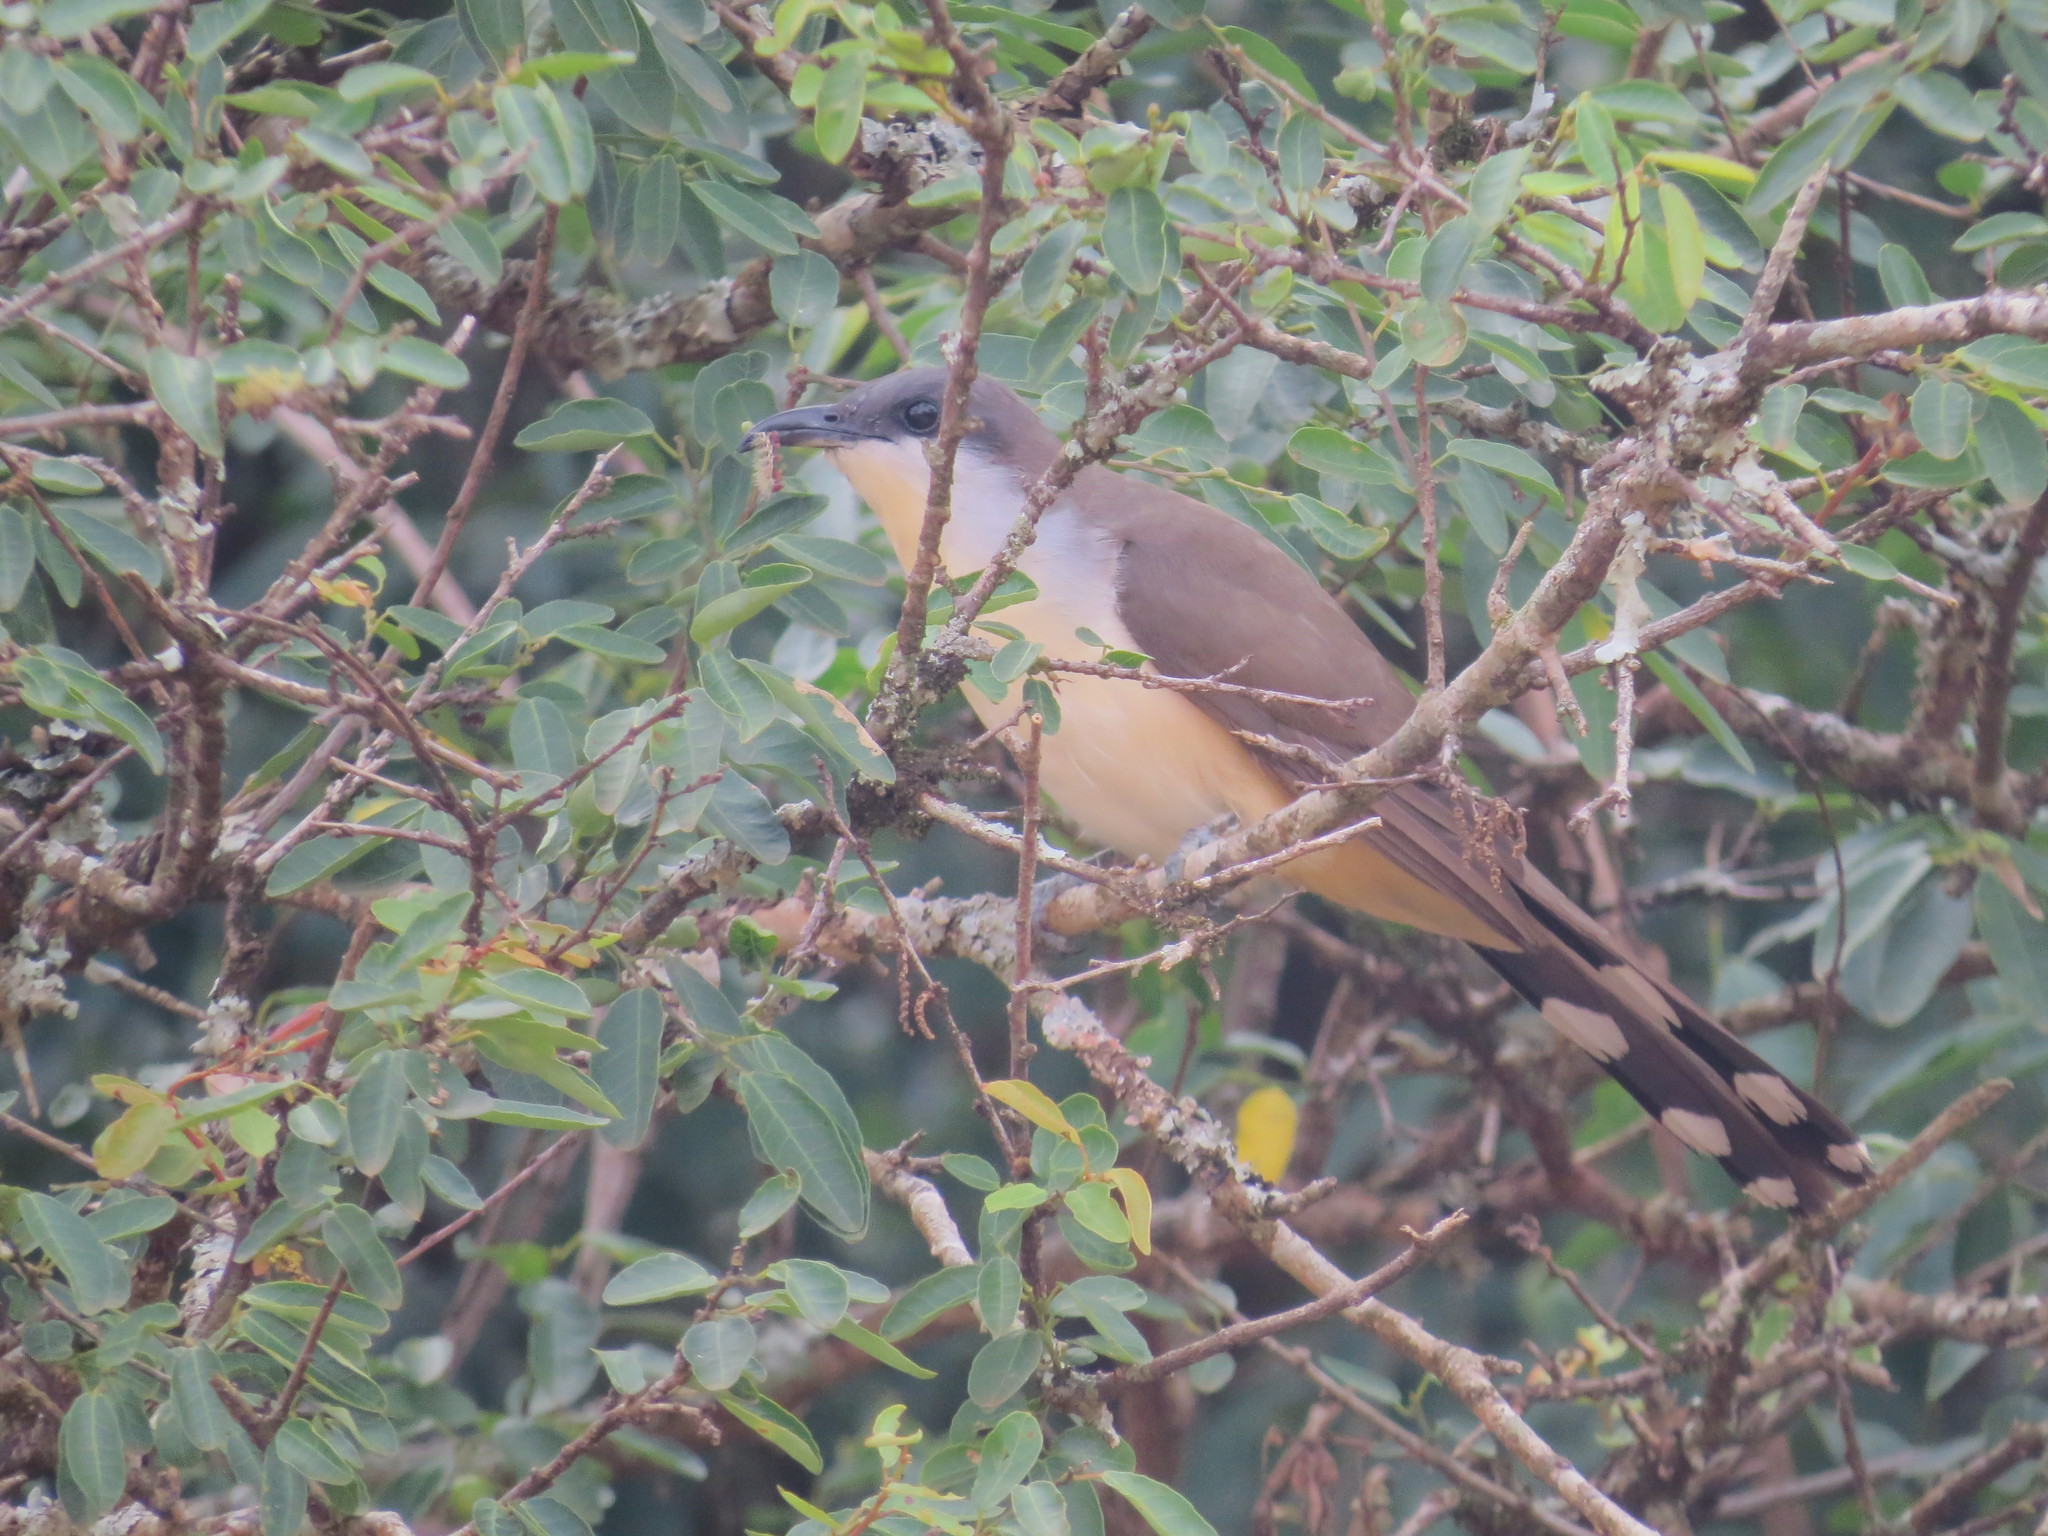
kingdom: Animalia
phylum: Chordata
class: Aves
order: Cuculiformes
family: Cuculidae
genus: Coccyzus
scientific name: Coccyzus melacoryphus
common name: Dark-billed cuckoo
